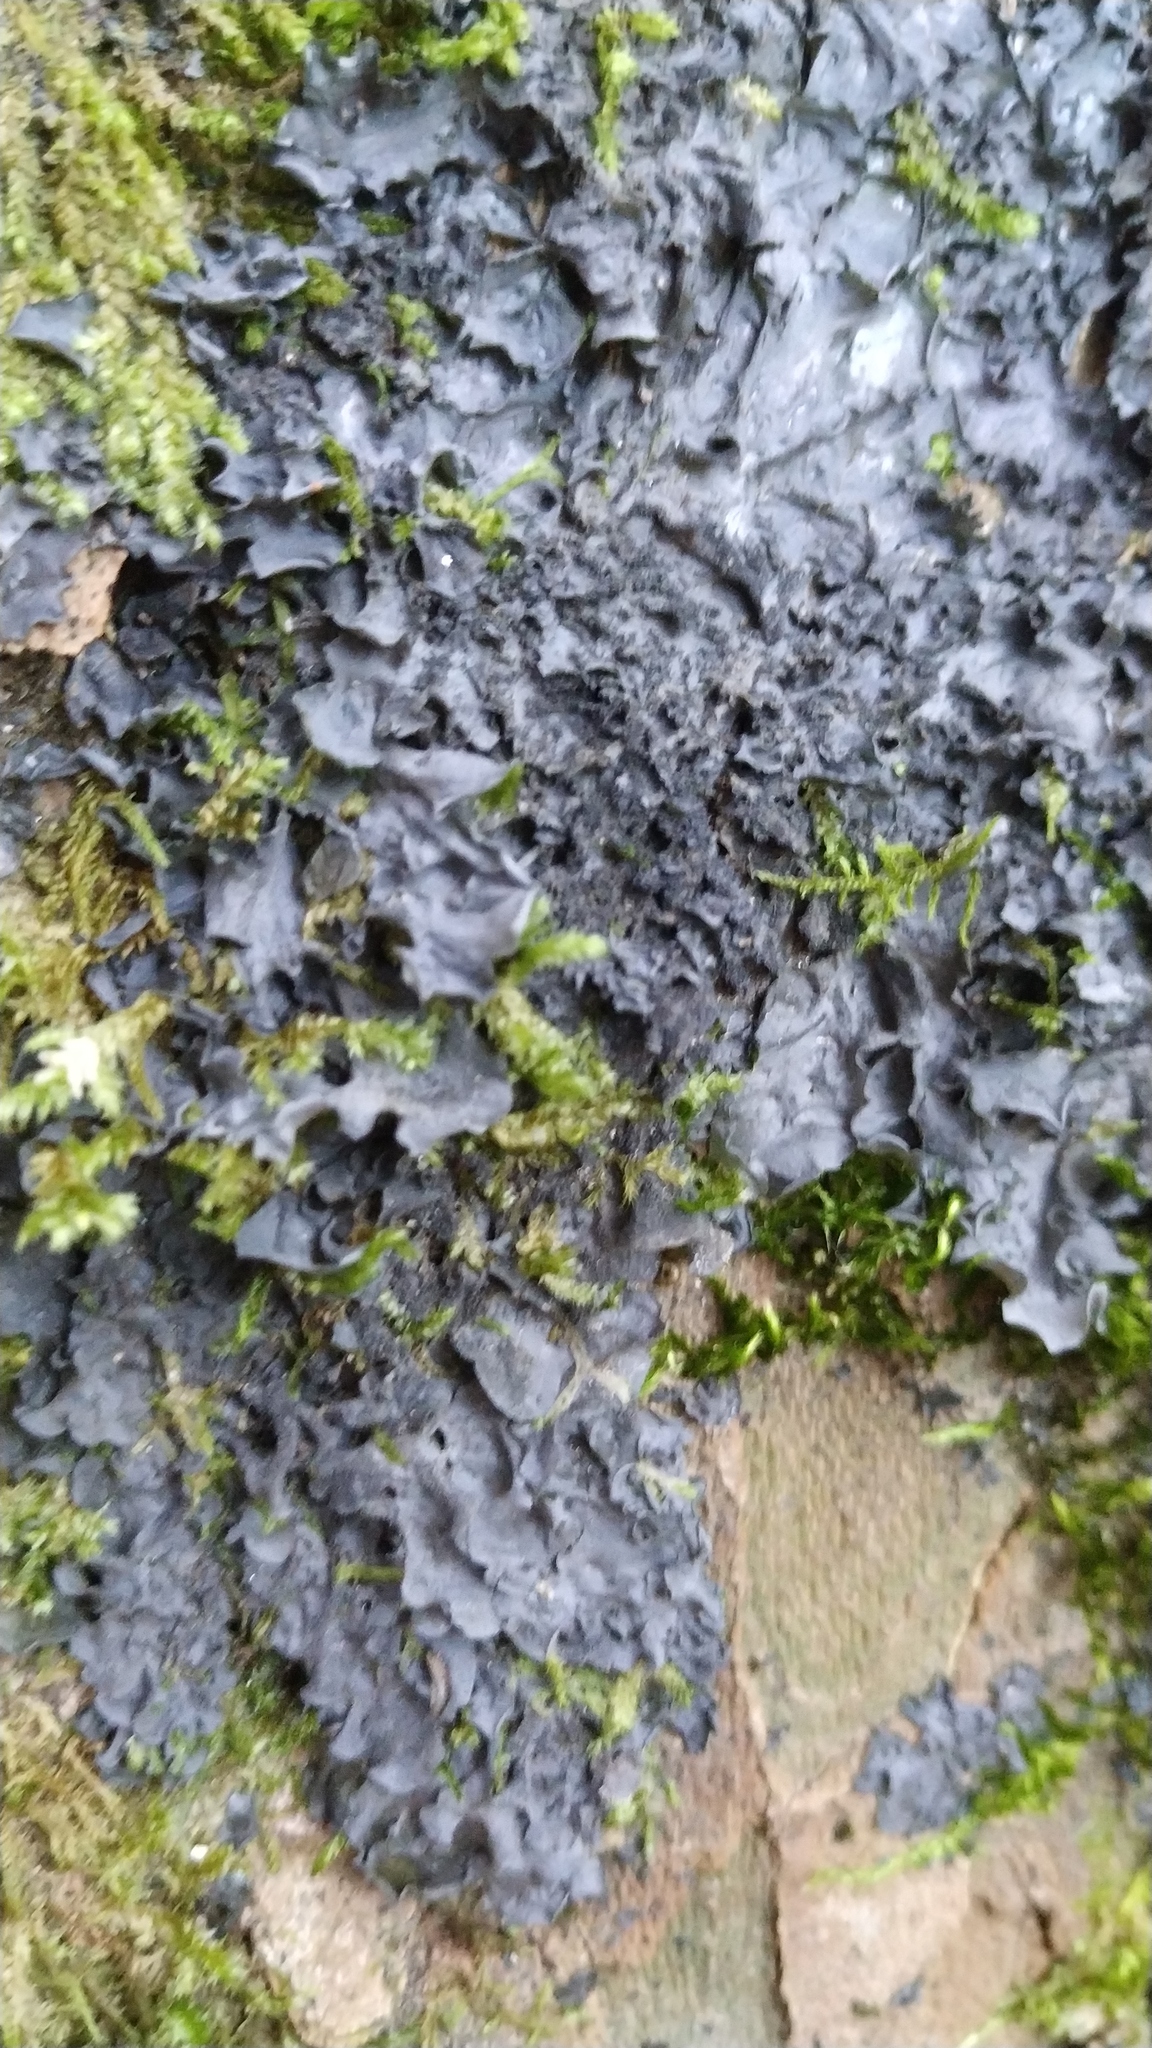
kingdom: Fungi
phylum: Ascomycota
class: Lecanoromycetes
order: Peltigerales
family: Collemataceae
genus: Leptogium
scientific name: Leptogium cyanescens
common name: Blue jellyskin
